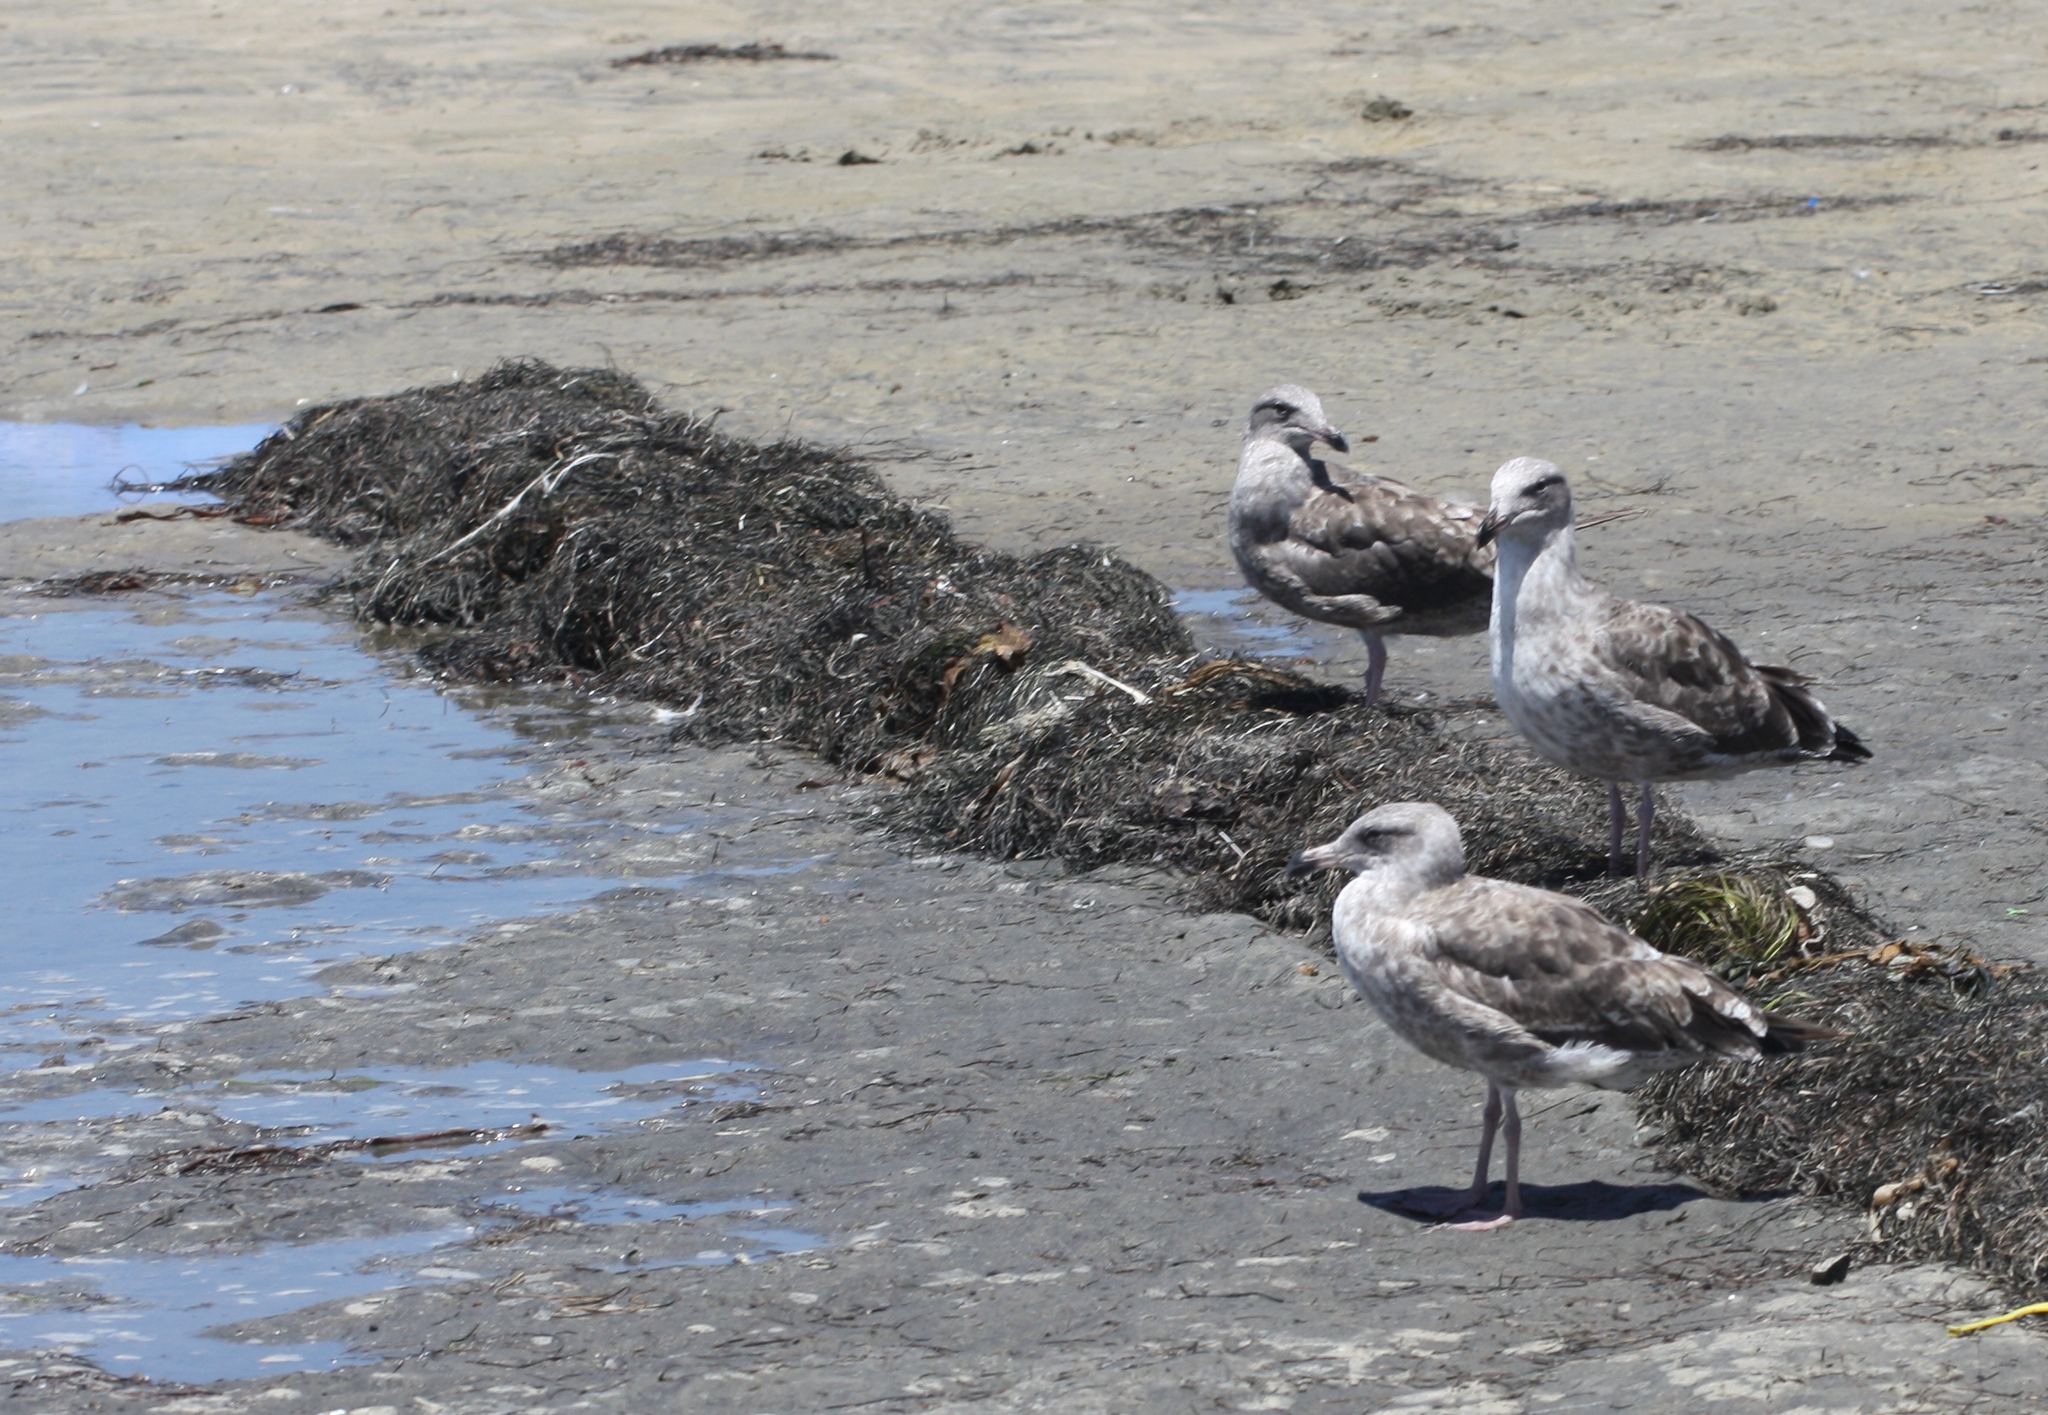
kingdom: Animalia
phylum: Chordata
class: Aves
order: Charadriiformes
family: Laridae
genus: Larus
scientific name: Larus occidentalis
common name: Western gull
